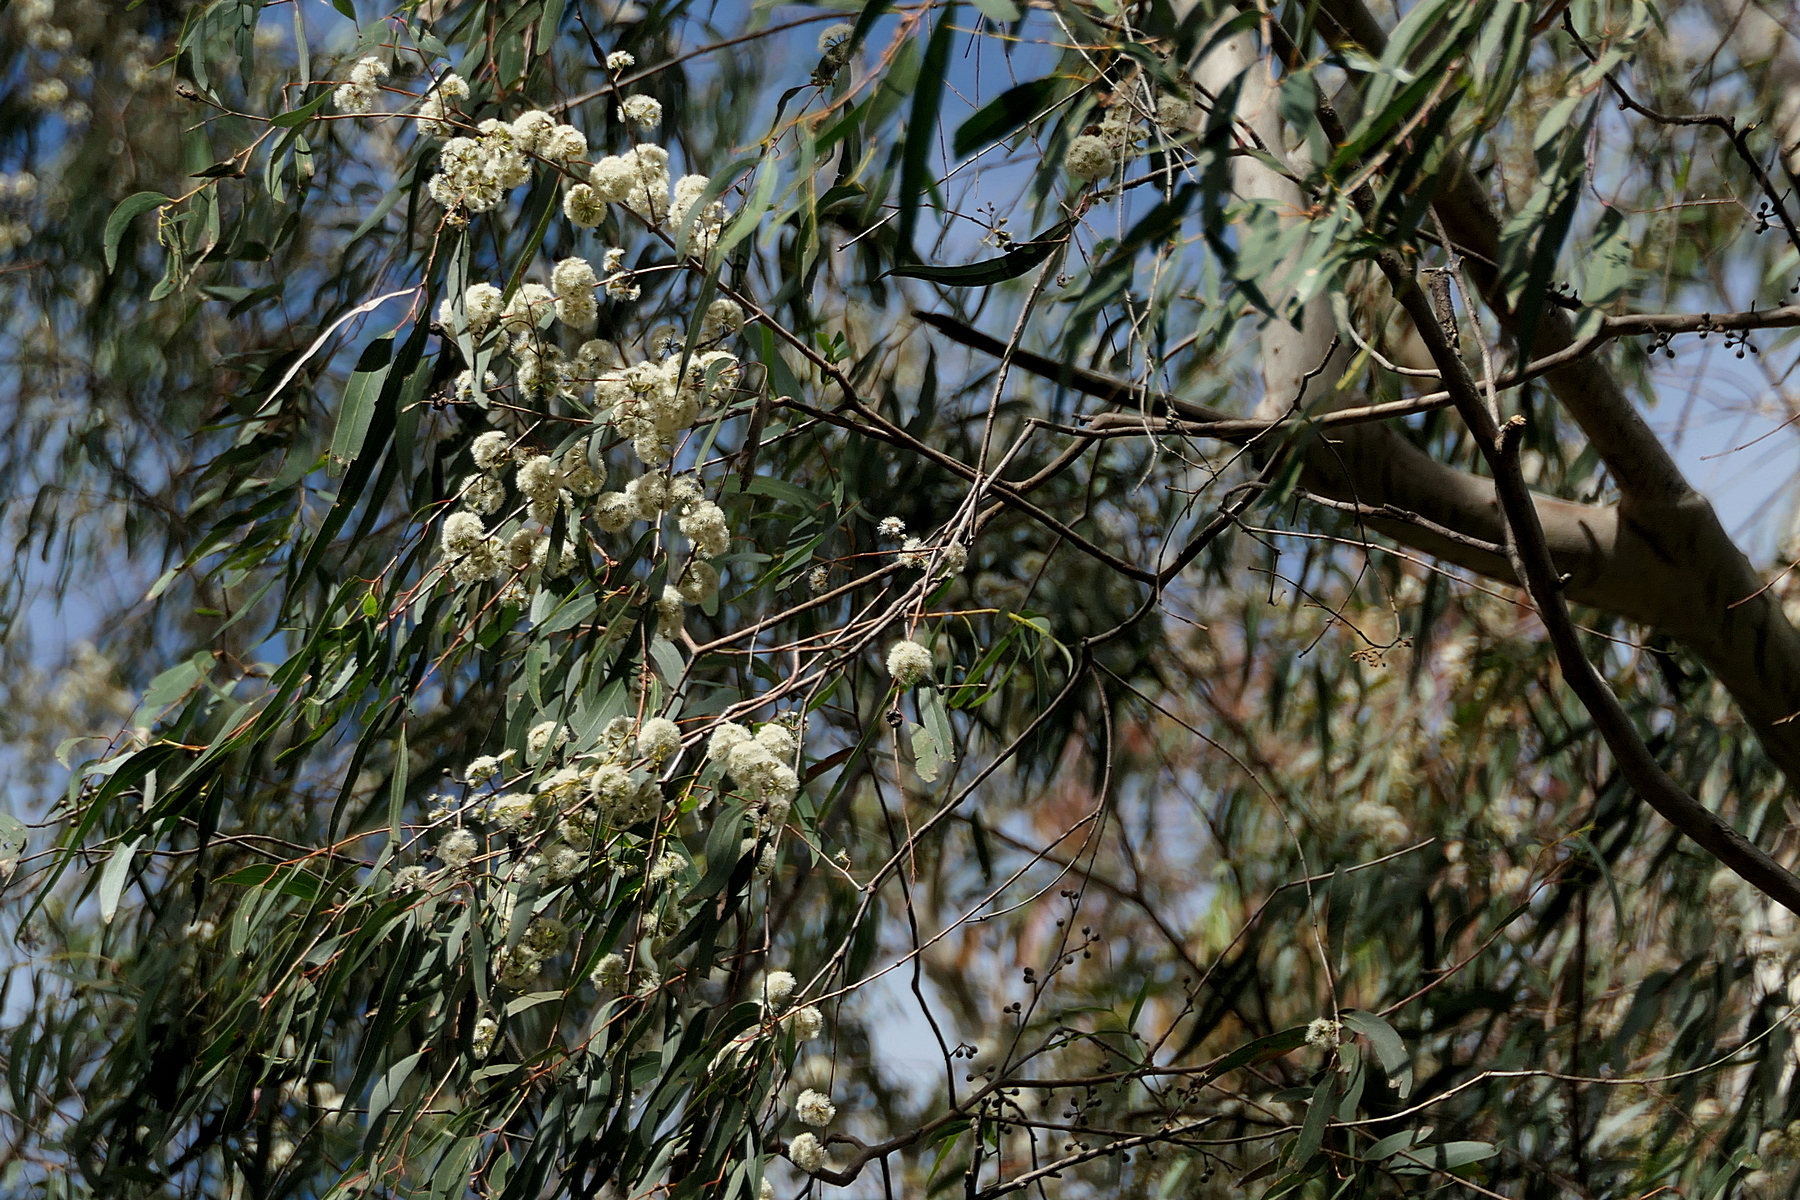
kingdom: Plantae
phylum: Tracheophyta
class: Magnoliopsida
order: Myrtales
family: Myrtaceae
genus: Eucalyptus
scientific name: Eucalyptus elata
